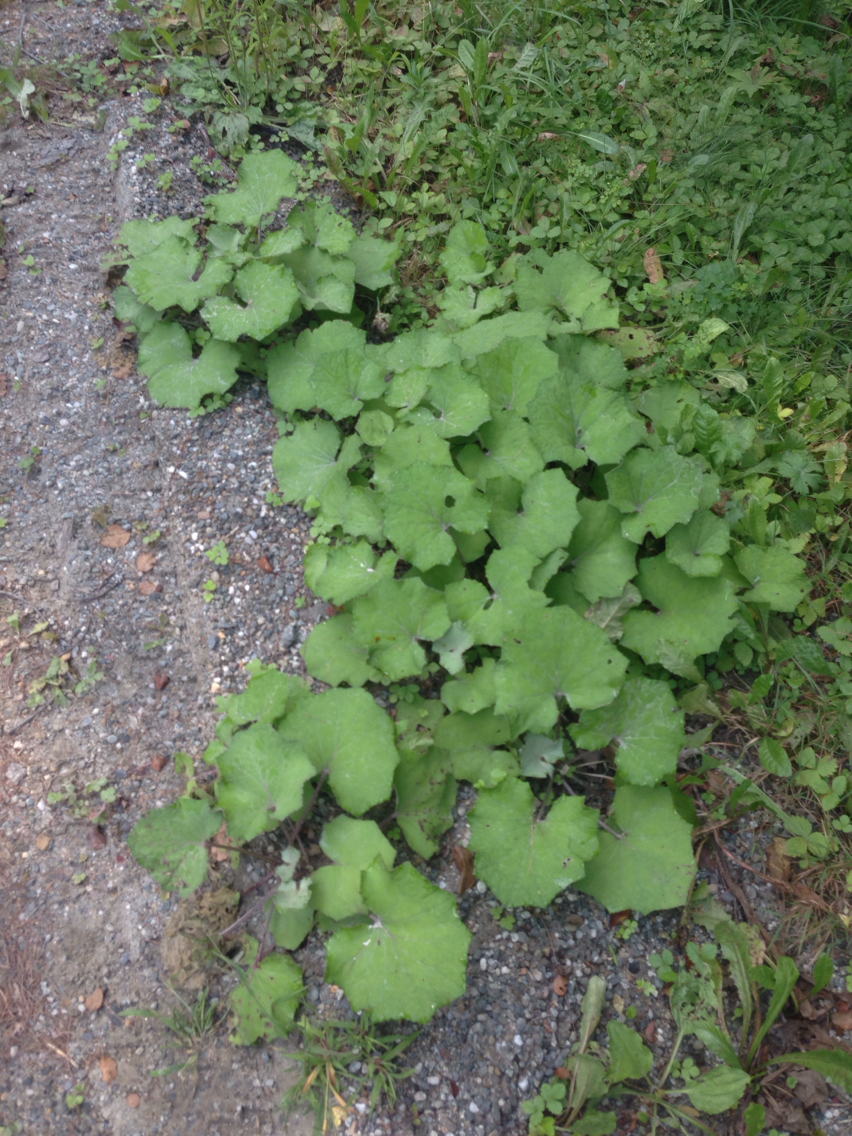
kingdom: Plantae
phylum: Tracheophyta
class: Magnoliopsida
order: Asterales
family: Asteraceae
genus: Tussilago
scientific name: Tussilago farfara
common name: Coltsfoot
